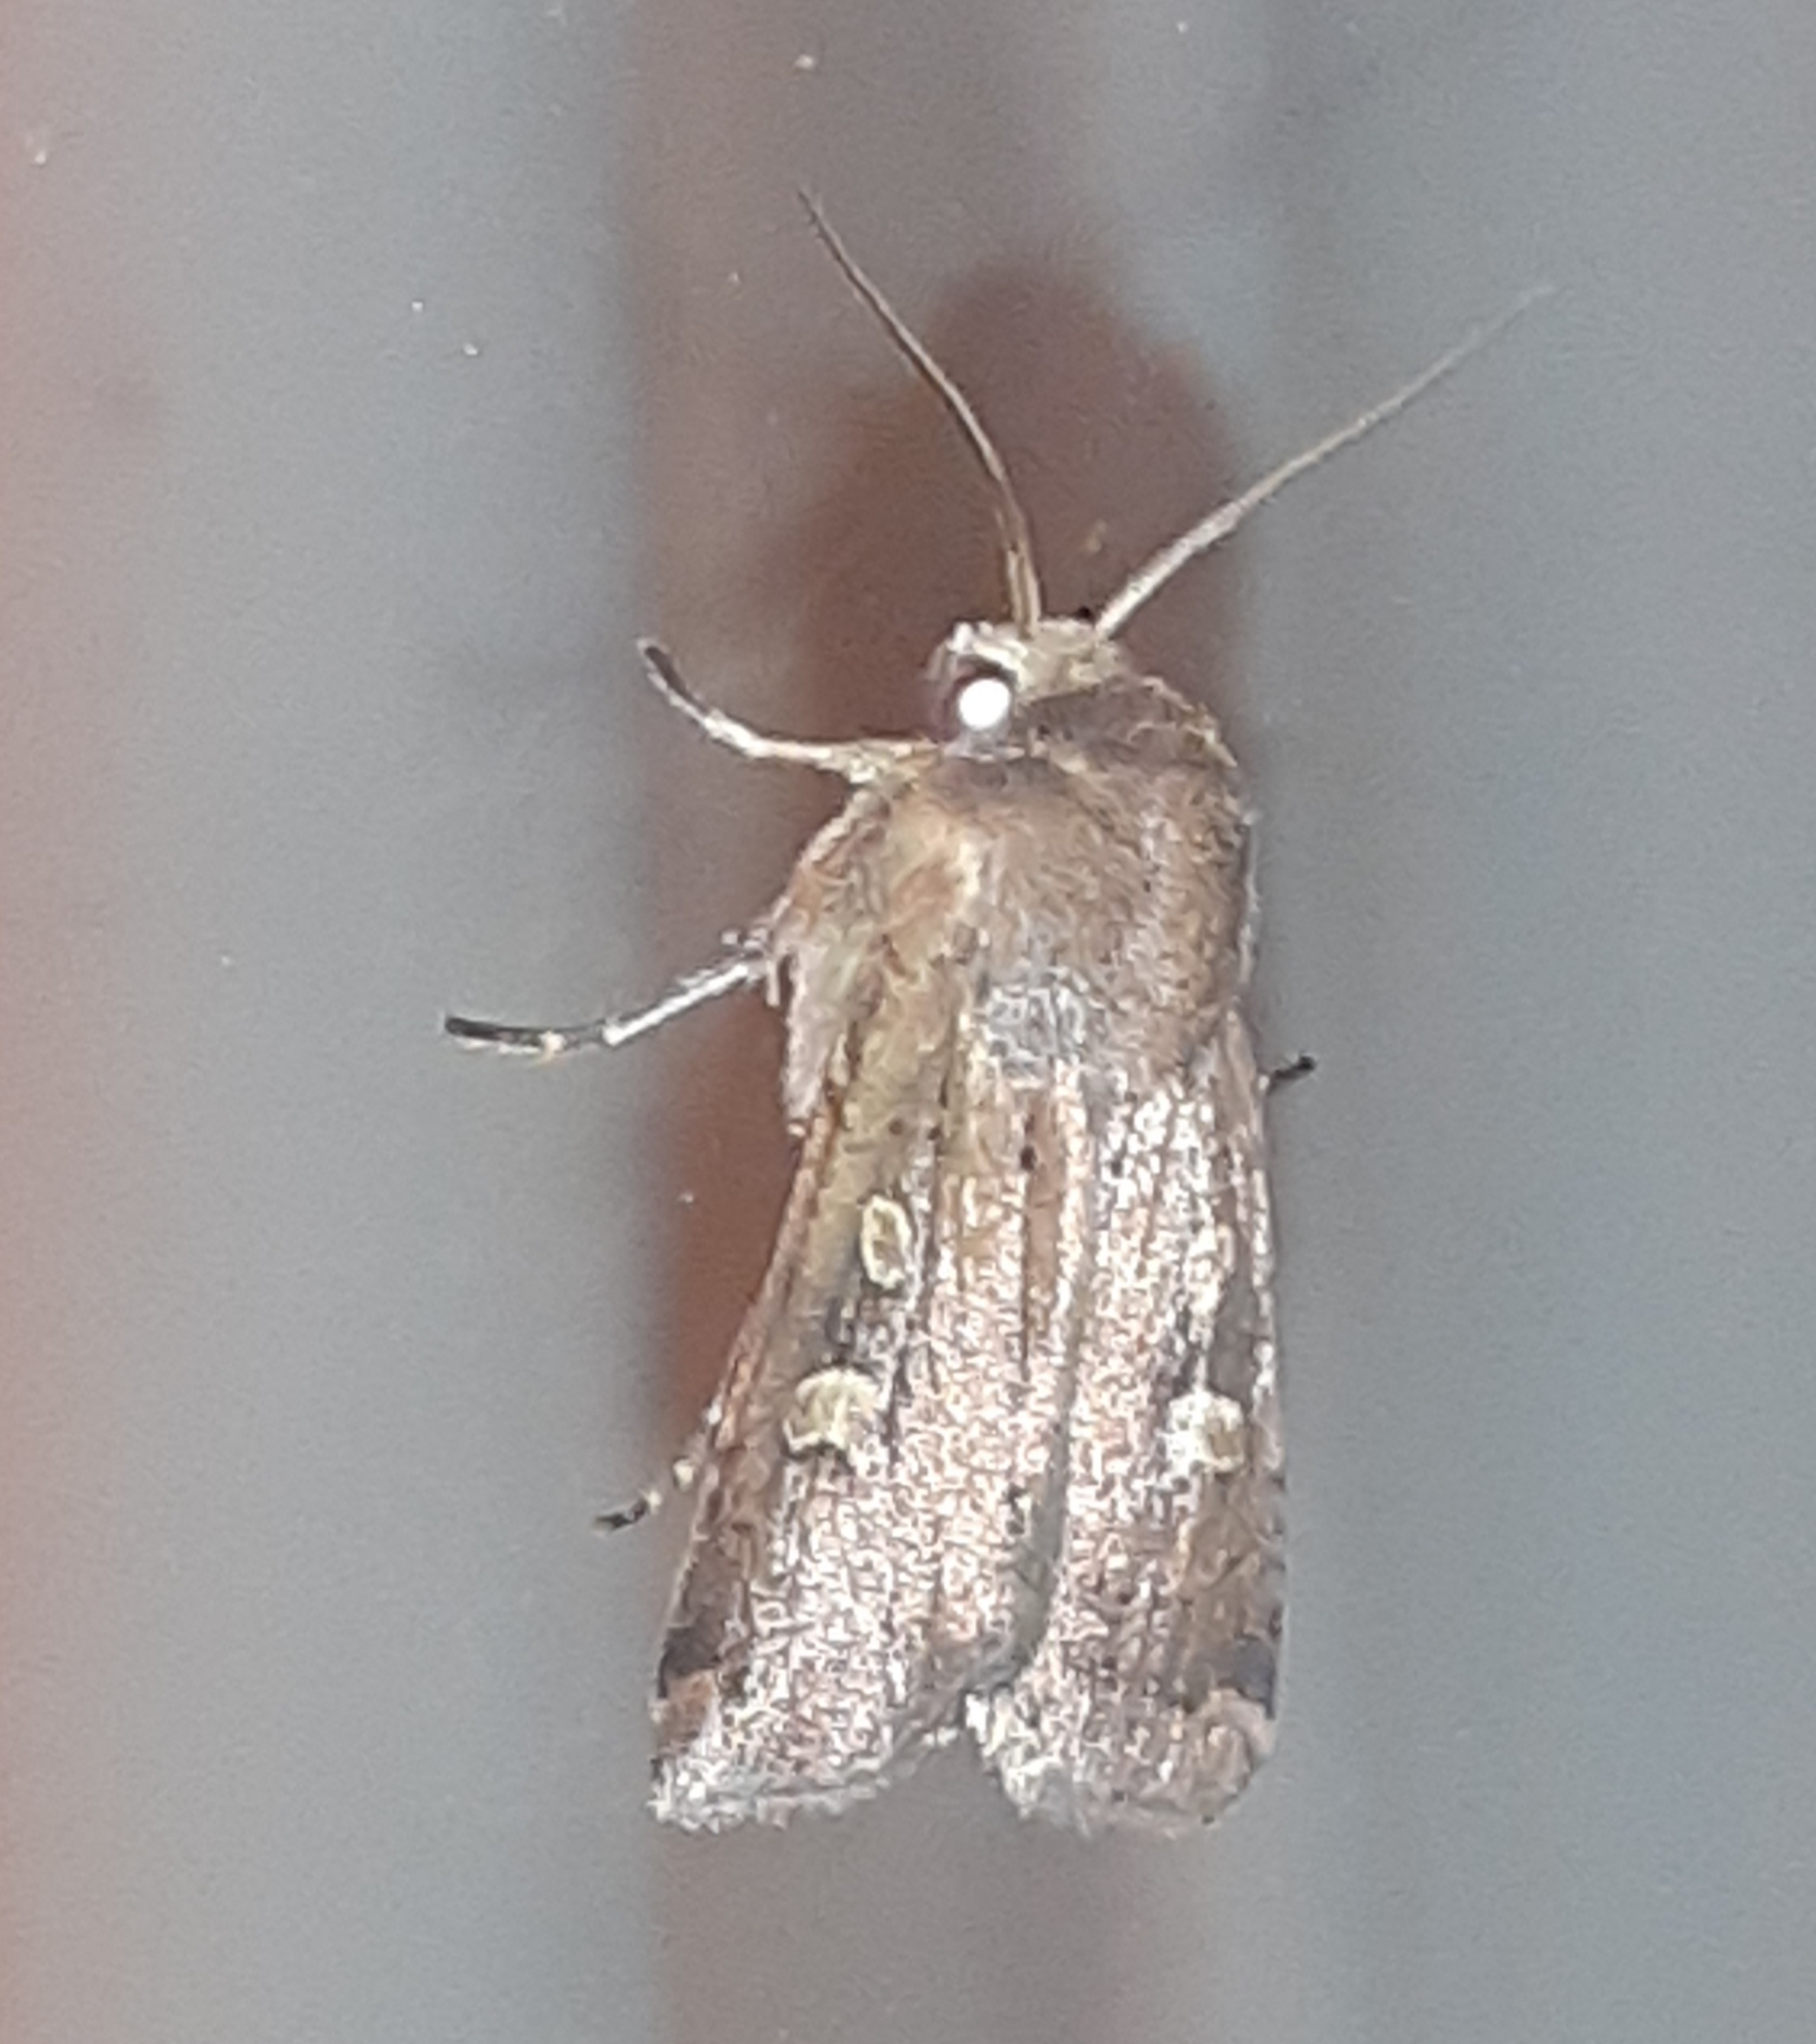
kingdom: Animalia
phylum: Arthropoda
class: Insecta
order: Lepidoptera
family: Noctuidae
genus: Xestia
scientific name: Xestia xanthographa
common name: Square-spot rustic
